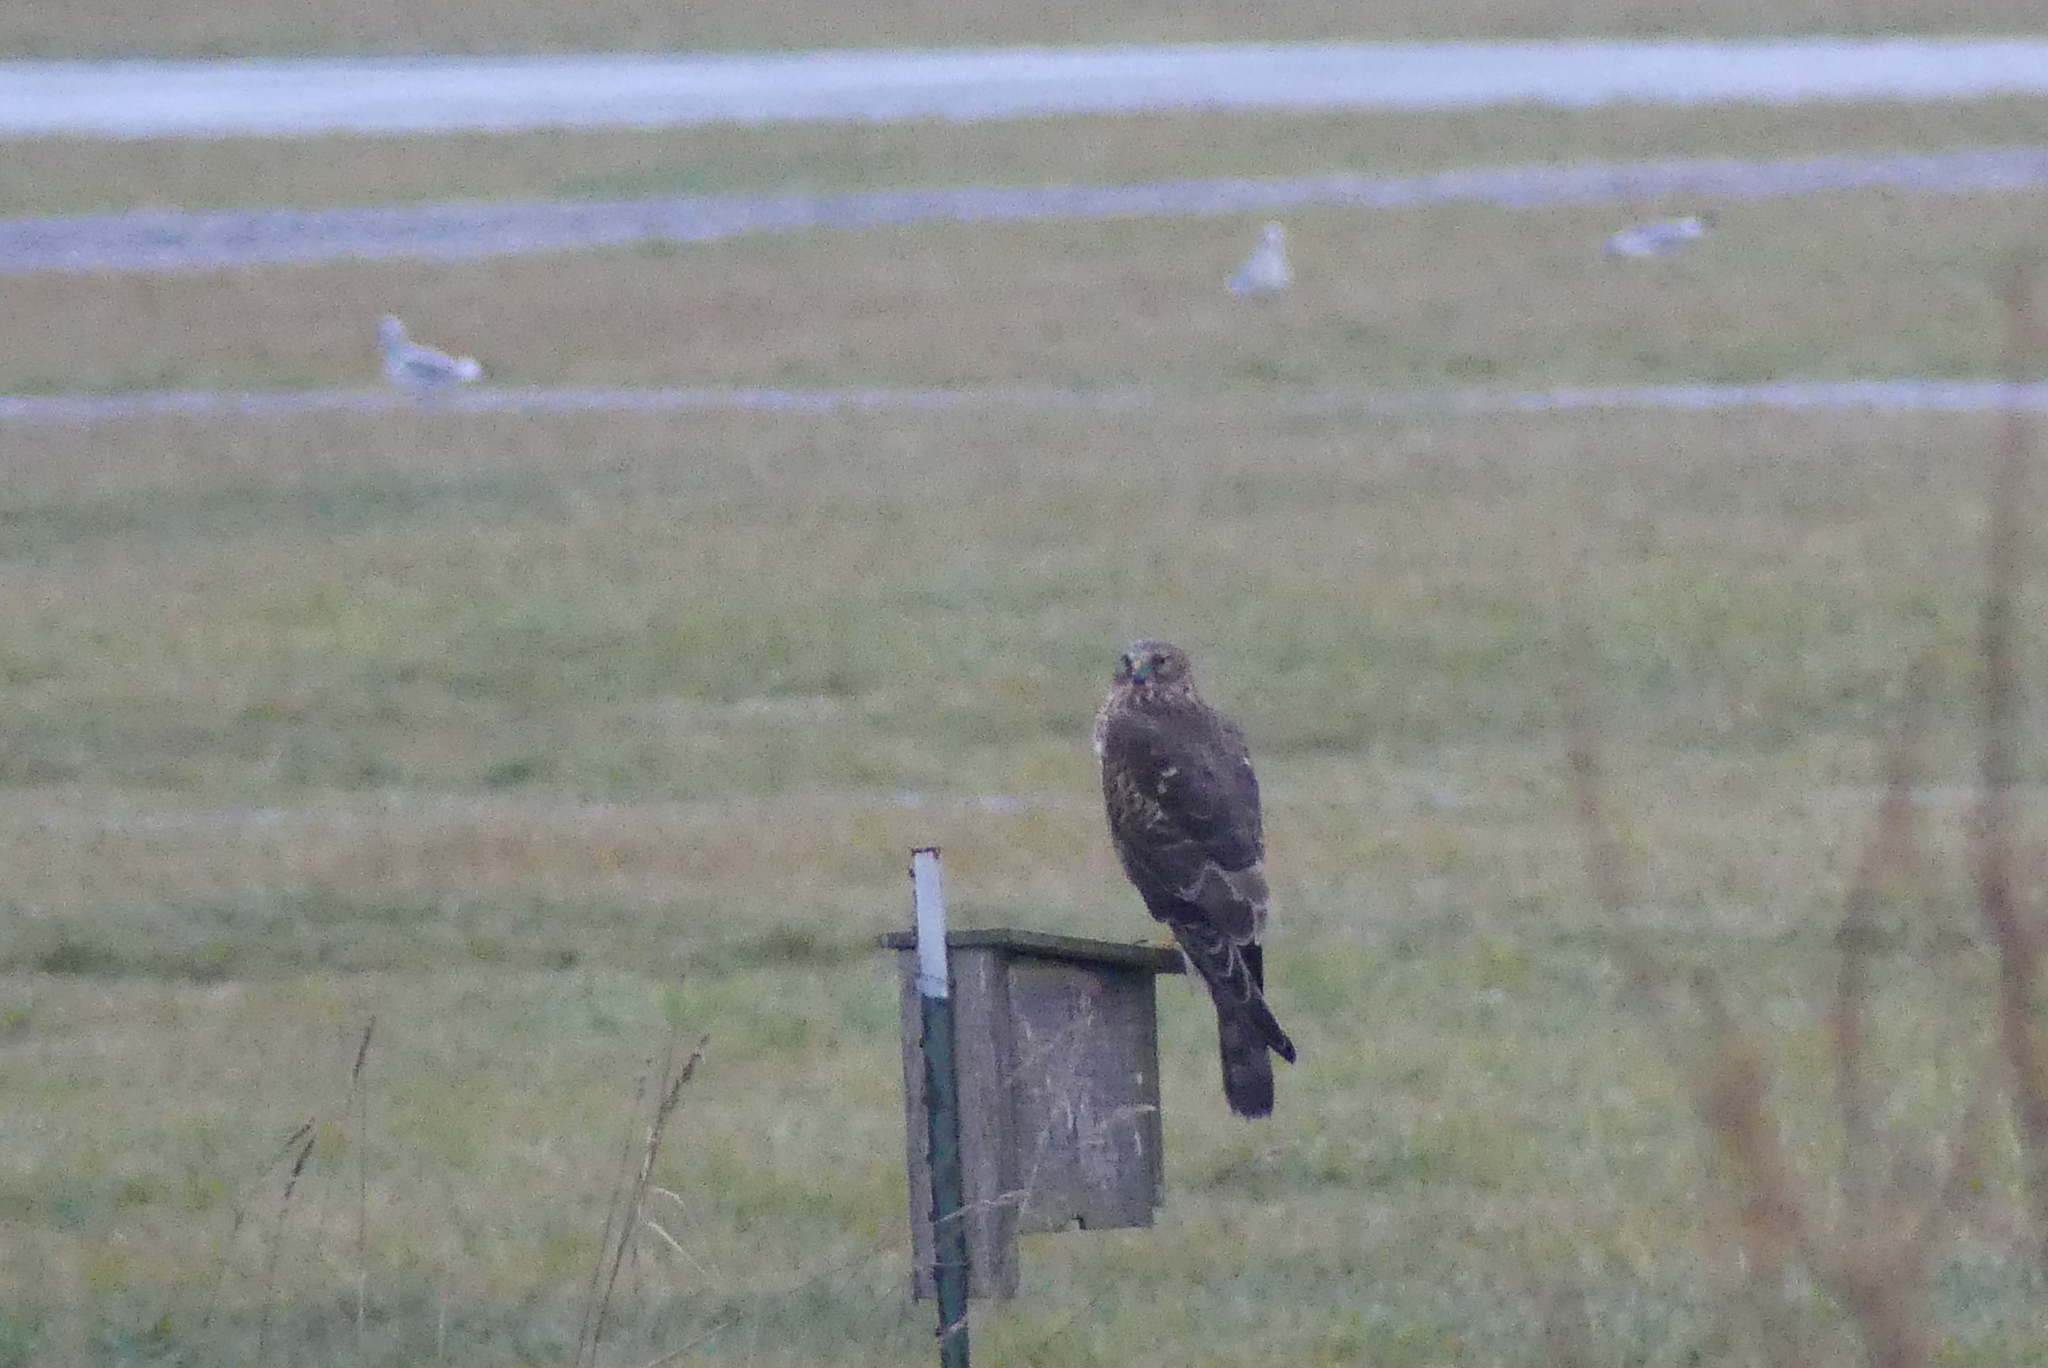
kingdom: Animalia
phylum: Chordata
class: Aves
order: Accipitriformes
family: Accipitridae
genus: Circus
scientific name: Circus cyaneus
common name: Hen harrier
